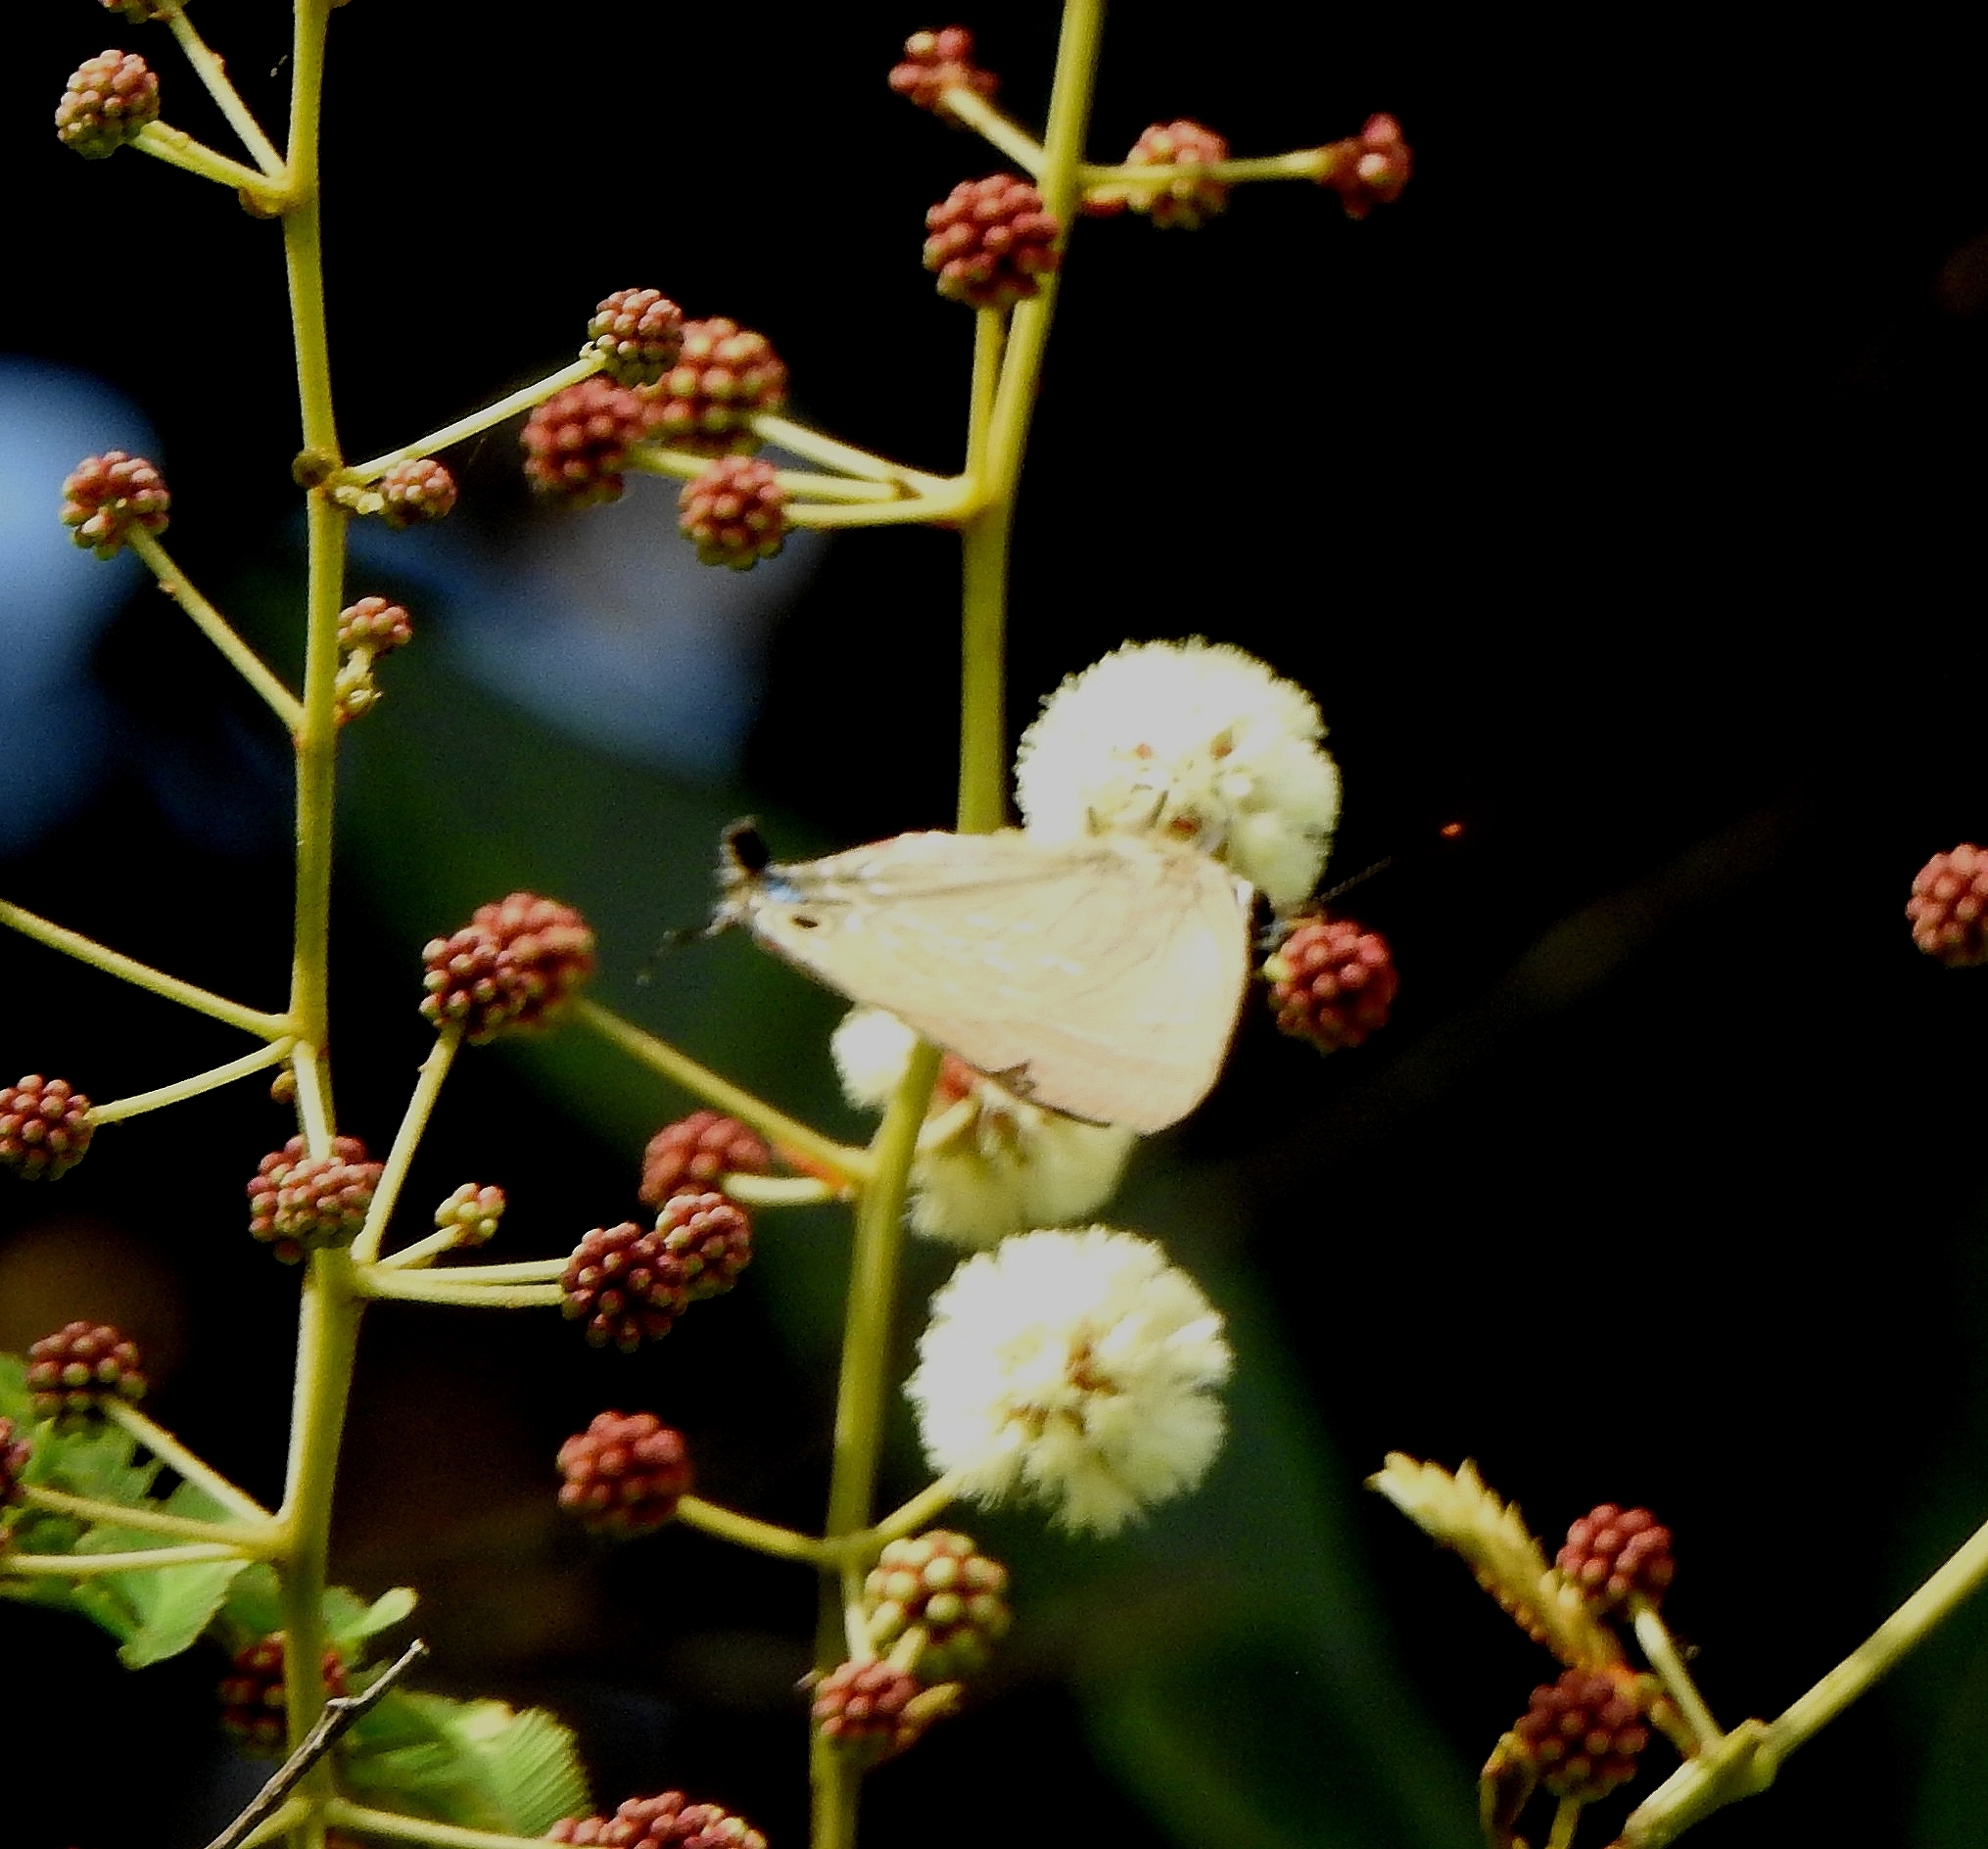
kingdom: Animalia
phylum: Arthropoda
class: Insecta
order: Lepidoptera
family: Lycaenidae
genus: Deudorix
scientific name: Deudorix epijarbas
